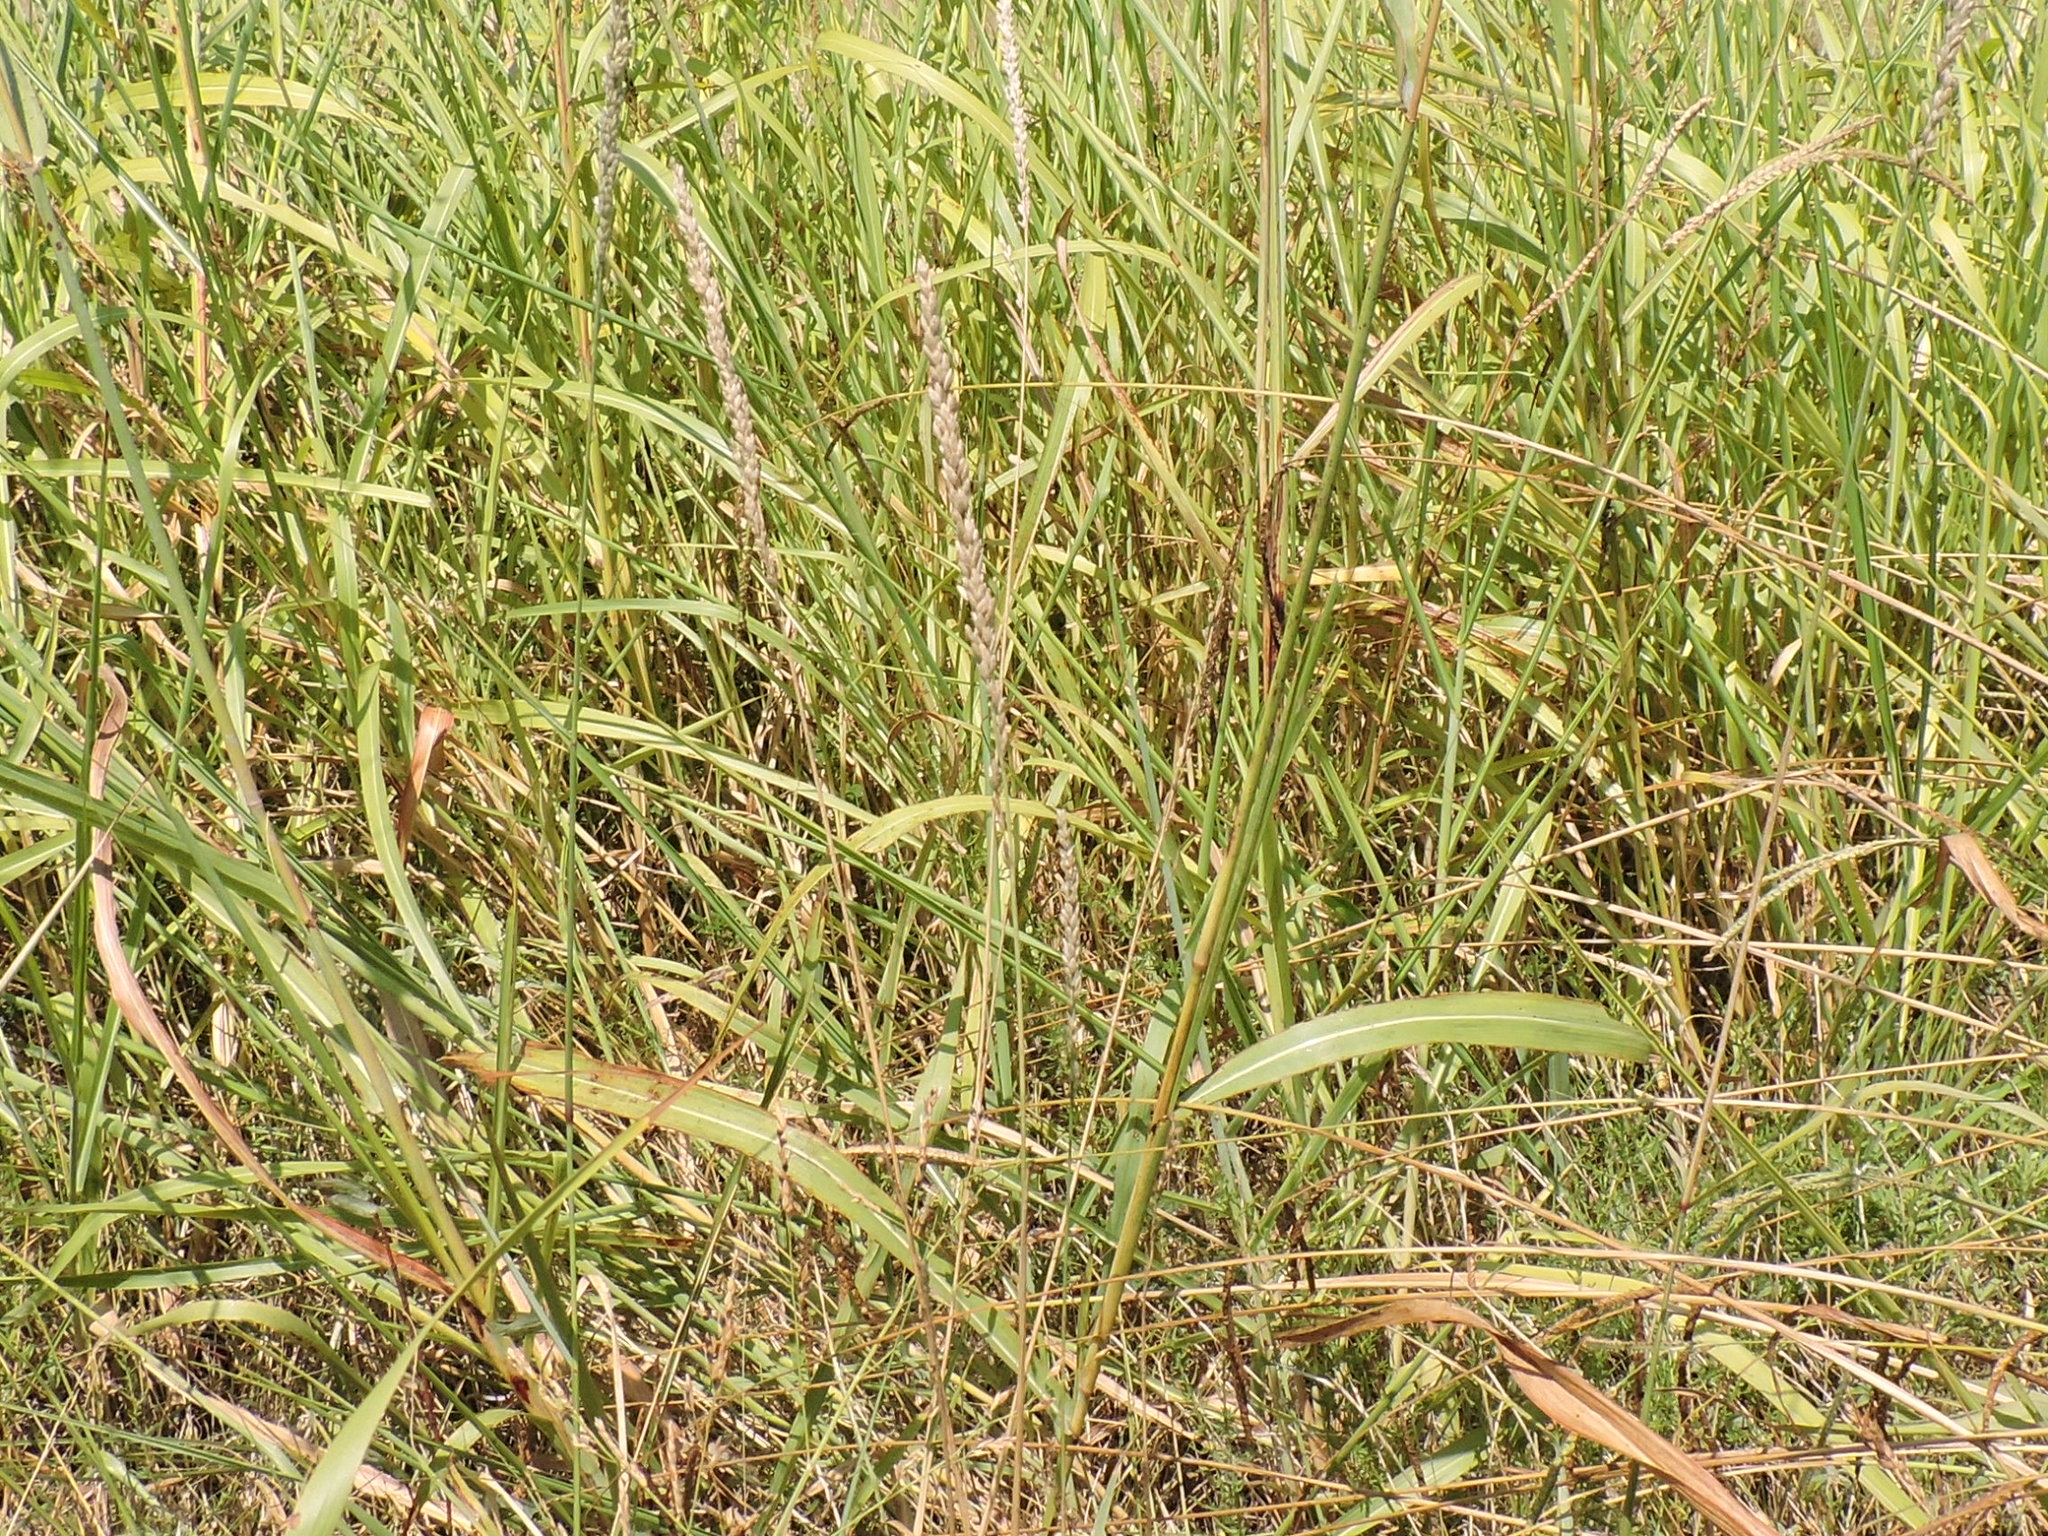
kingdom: Plantae
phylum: Tracheophyta
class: Liliopsida
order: Poales
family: Poaceae
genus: Tridens
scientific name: Tridens albescens
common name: White tridens
